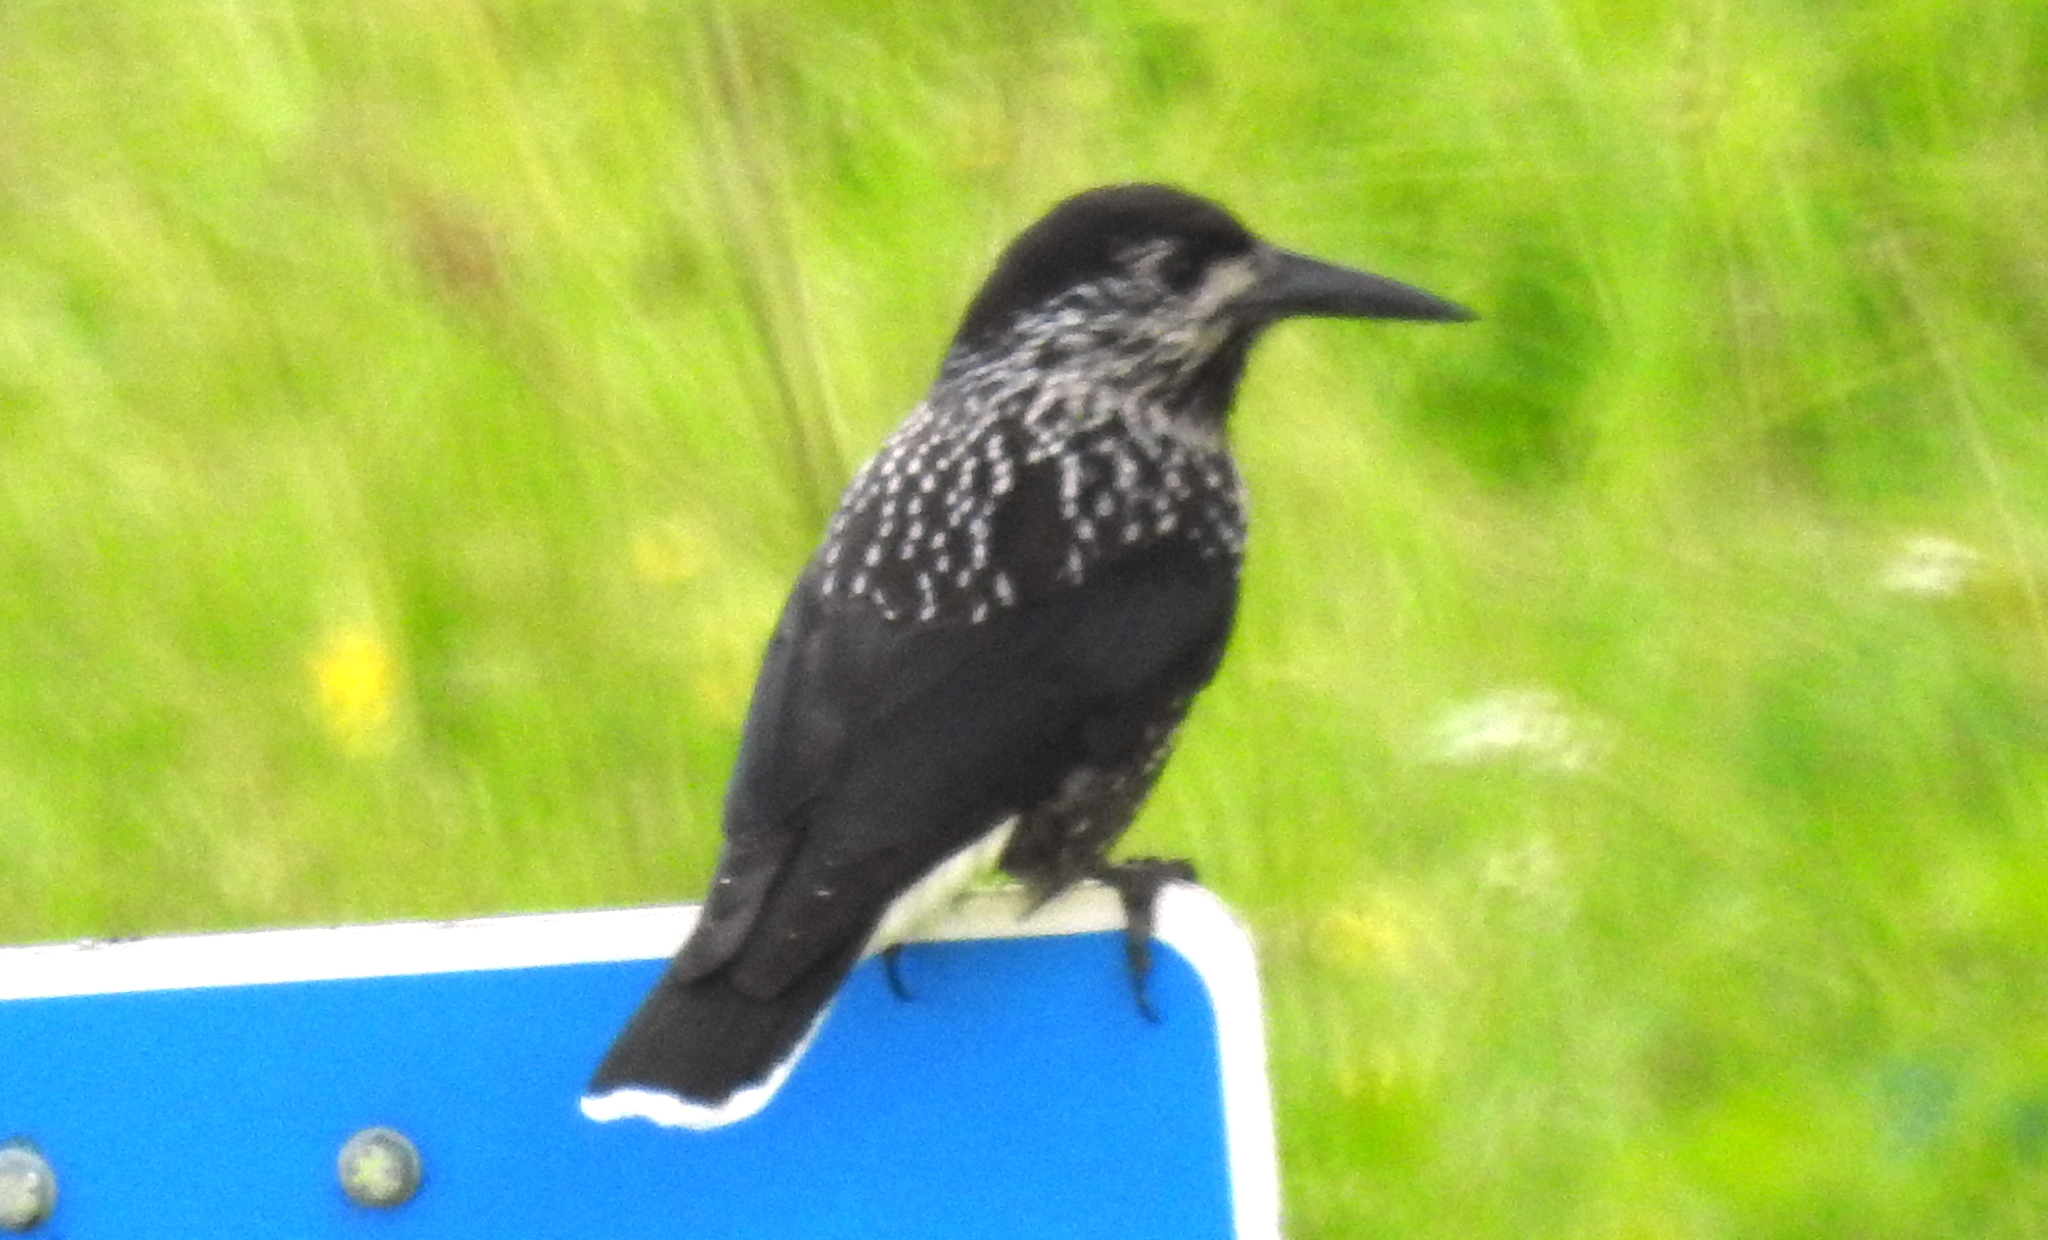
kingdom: Animalia
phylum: Chordata
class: Aves
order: Passeriformes
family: Corvidae
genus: Nucifraga
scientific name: Nucifraga caryocatactes
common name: Spotted nutcracker
